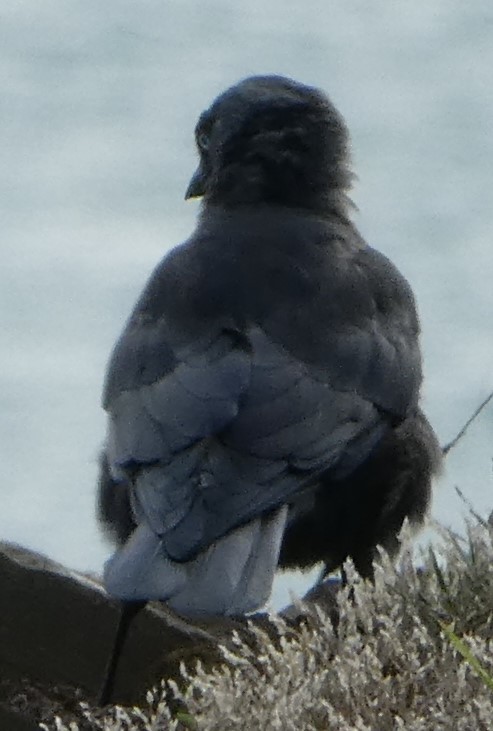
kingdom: Animalia
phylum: Chordata
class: Aves
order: Passeriformes
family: Corvidae
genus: Coloeus
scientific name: Coloeus monedula
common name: Western jackdaw
